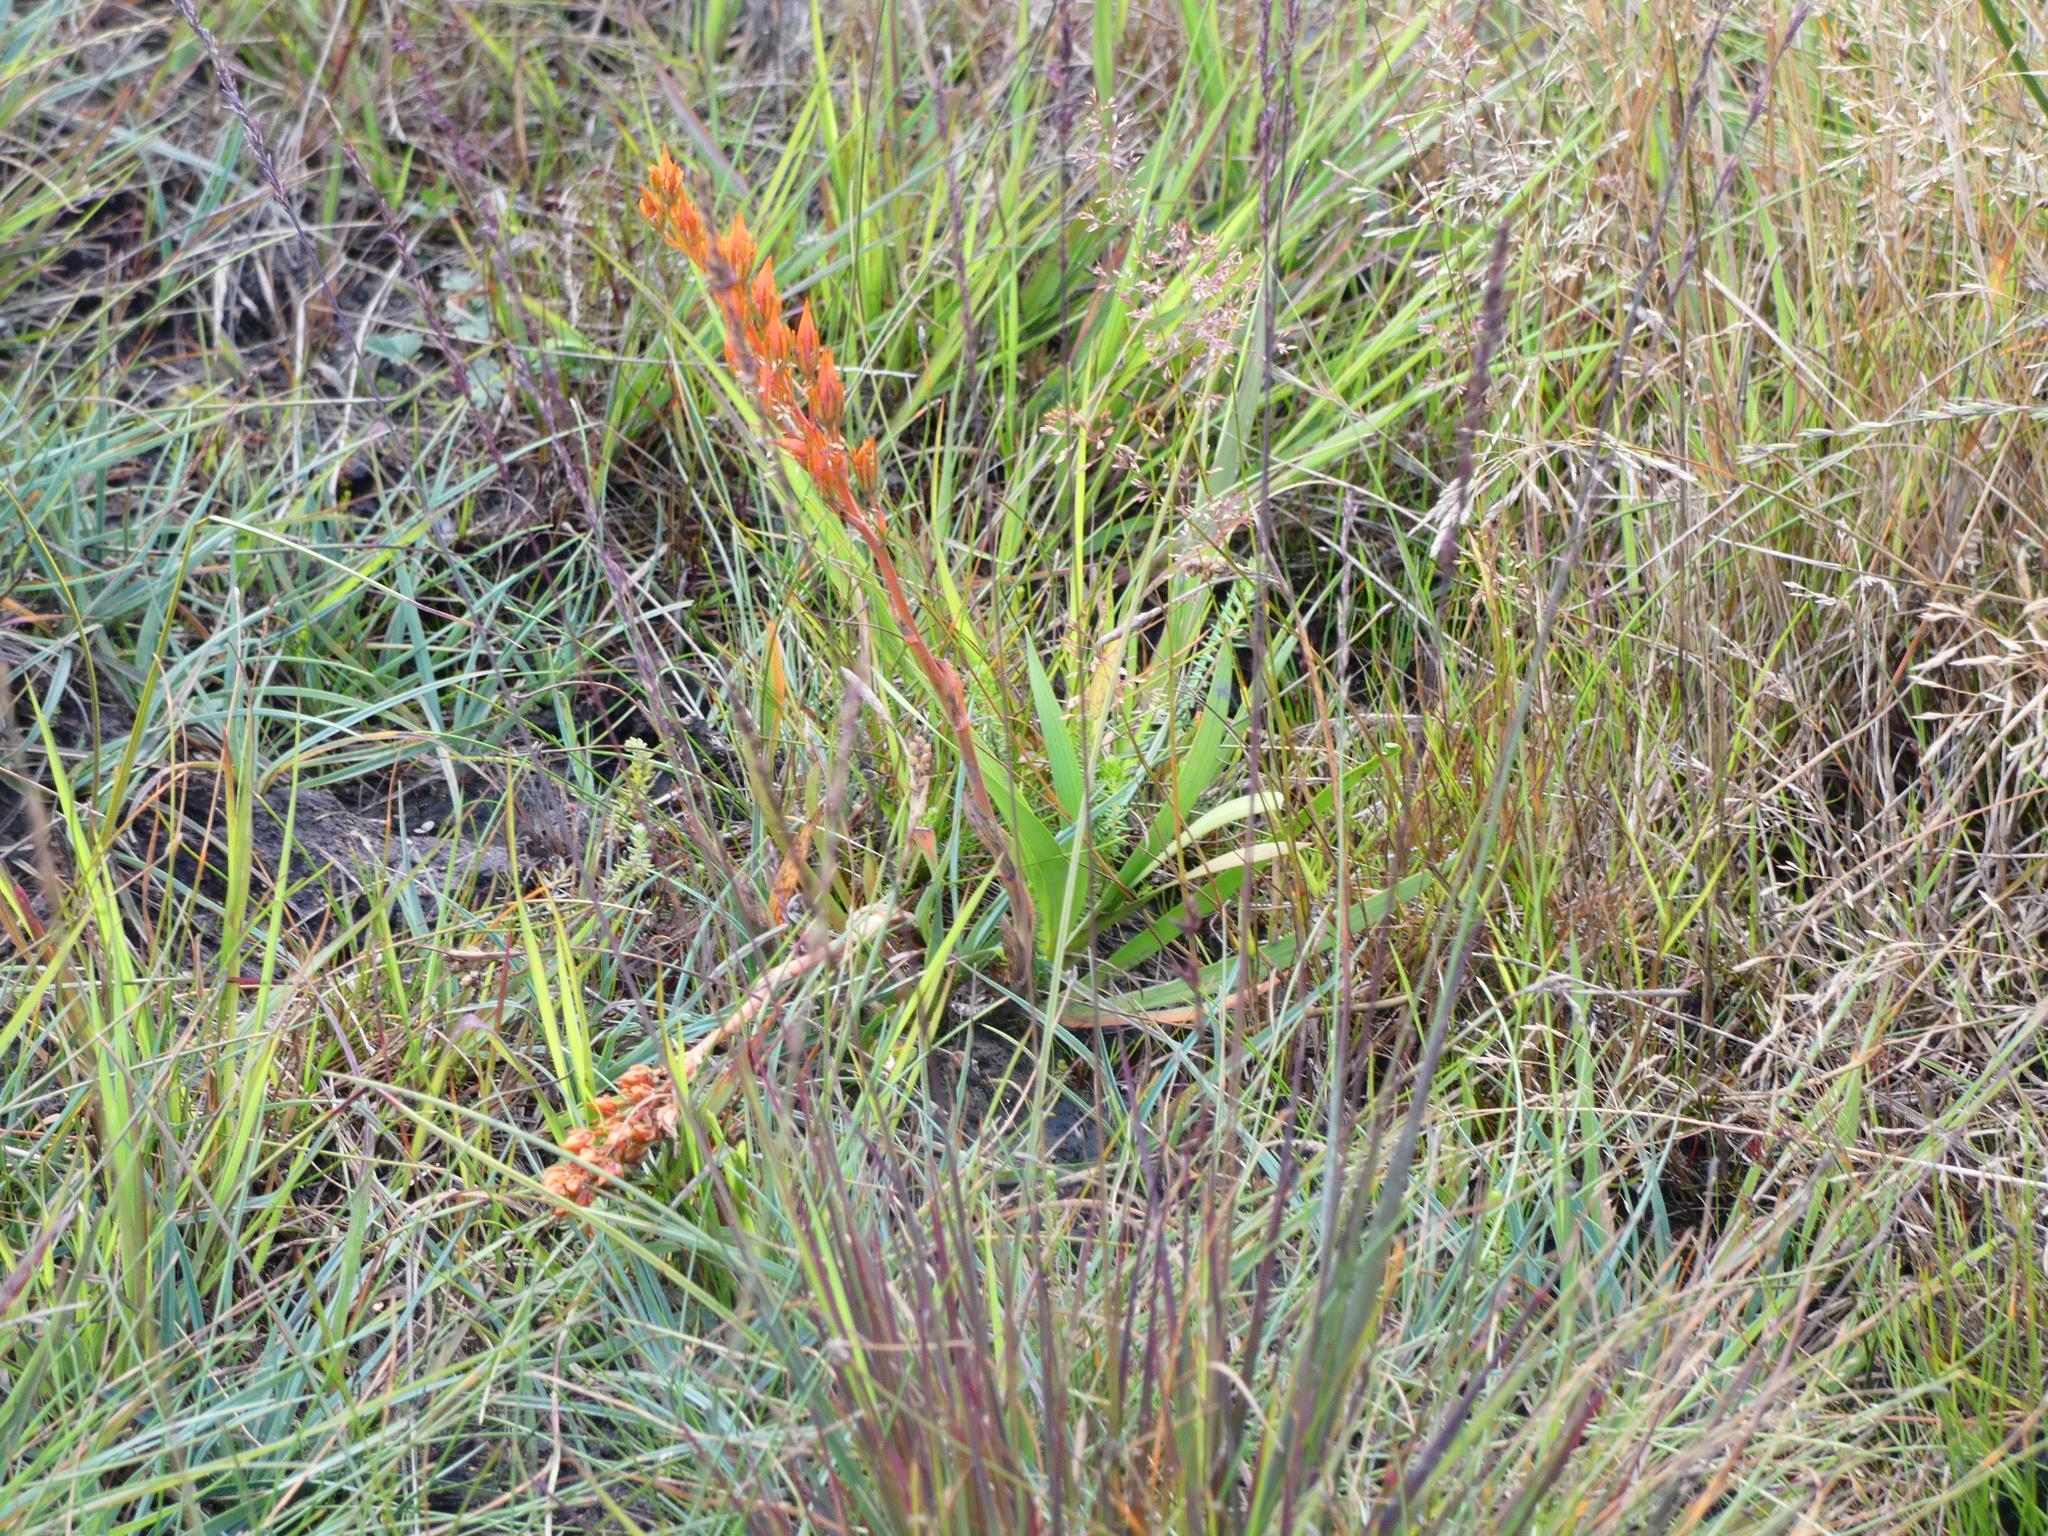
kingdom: Plantae
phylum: Tracheophyta
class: Liliopsida
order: Dioscoreales
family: Nartheciaceae
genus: Narthecium
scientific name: Narthecium ossifragum
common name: Bog asphodel
